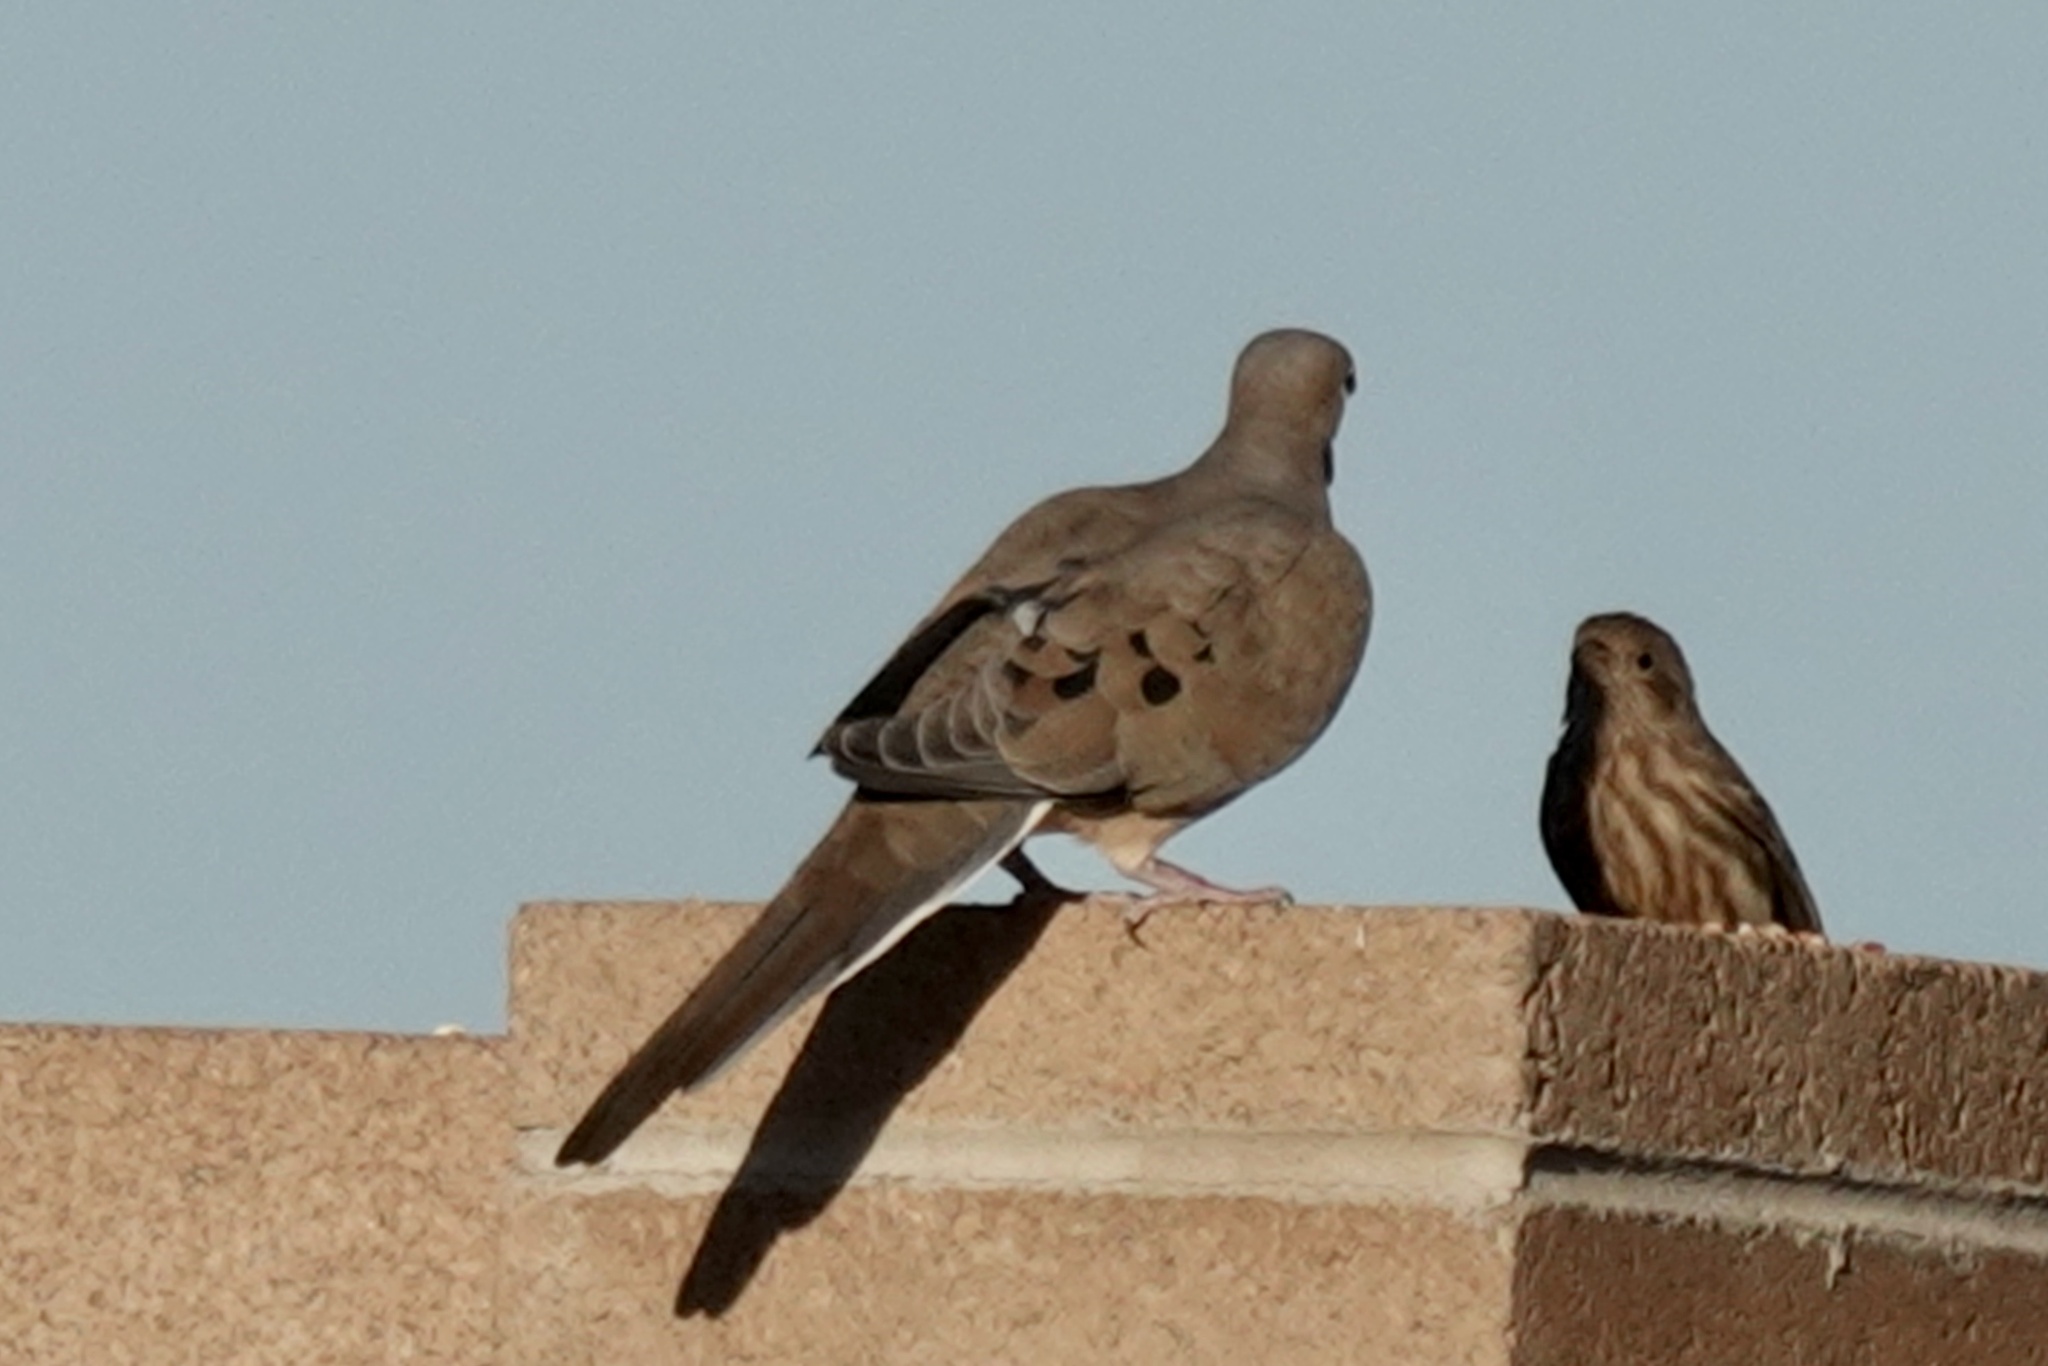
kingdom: Animalia
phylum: Chordata
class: Aves
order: Columbiformes
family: Columbidae
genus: Zenaida
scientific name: Zenaida macroura
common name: Mourning dove
